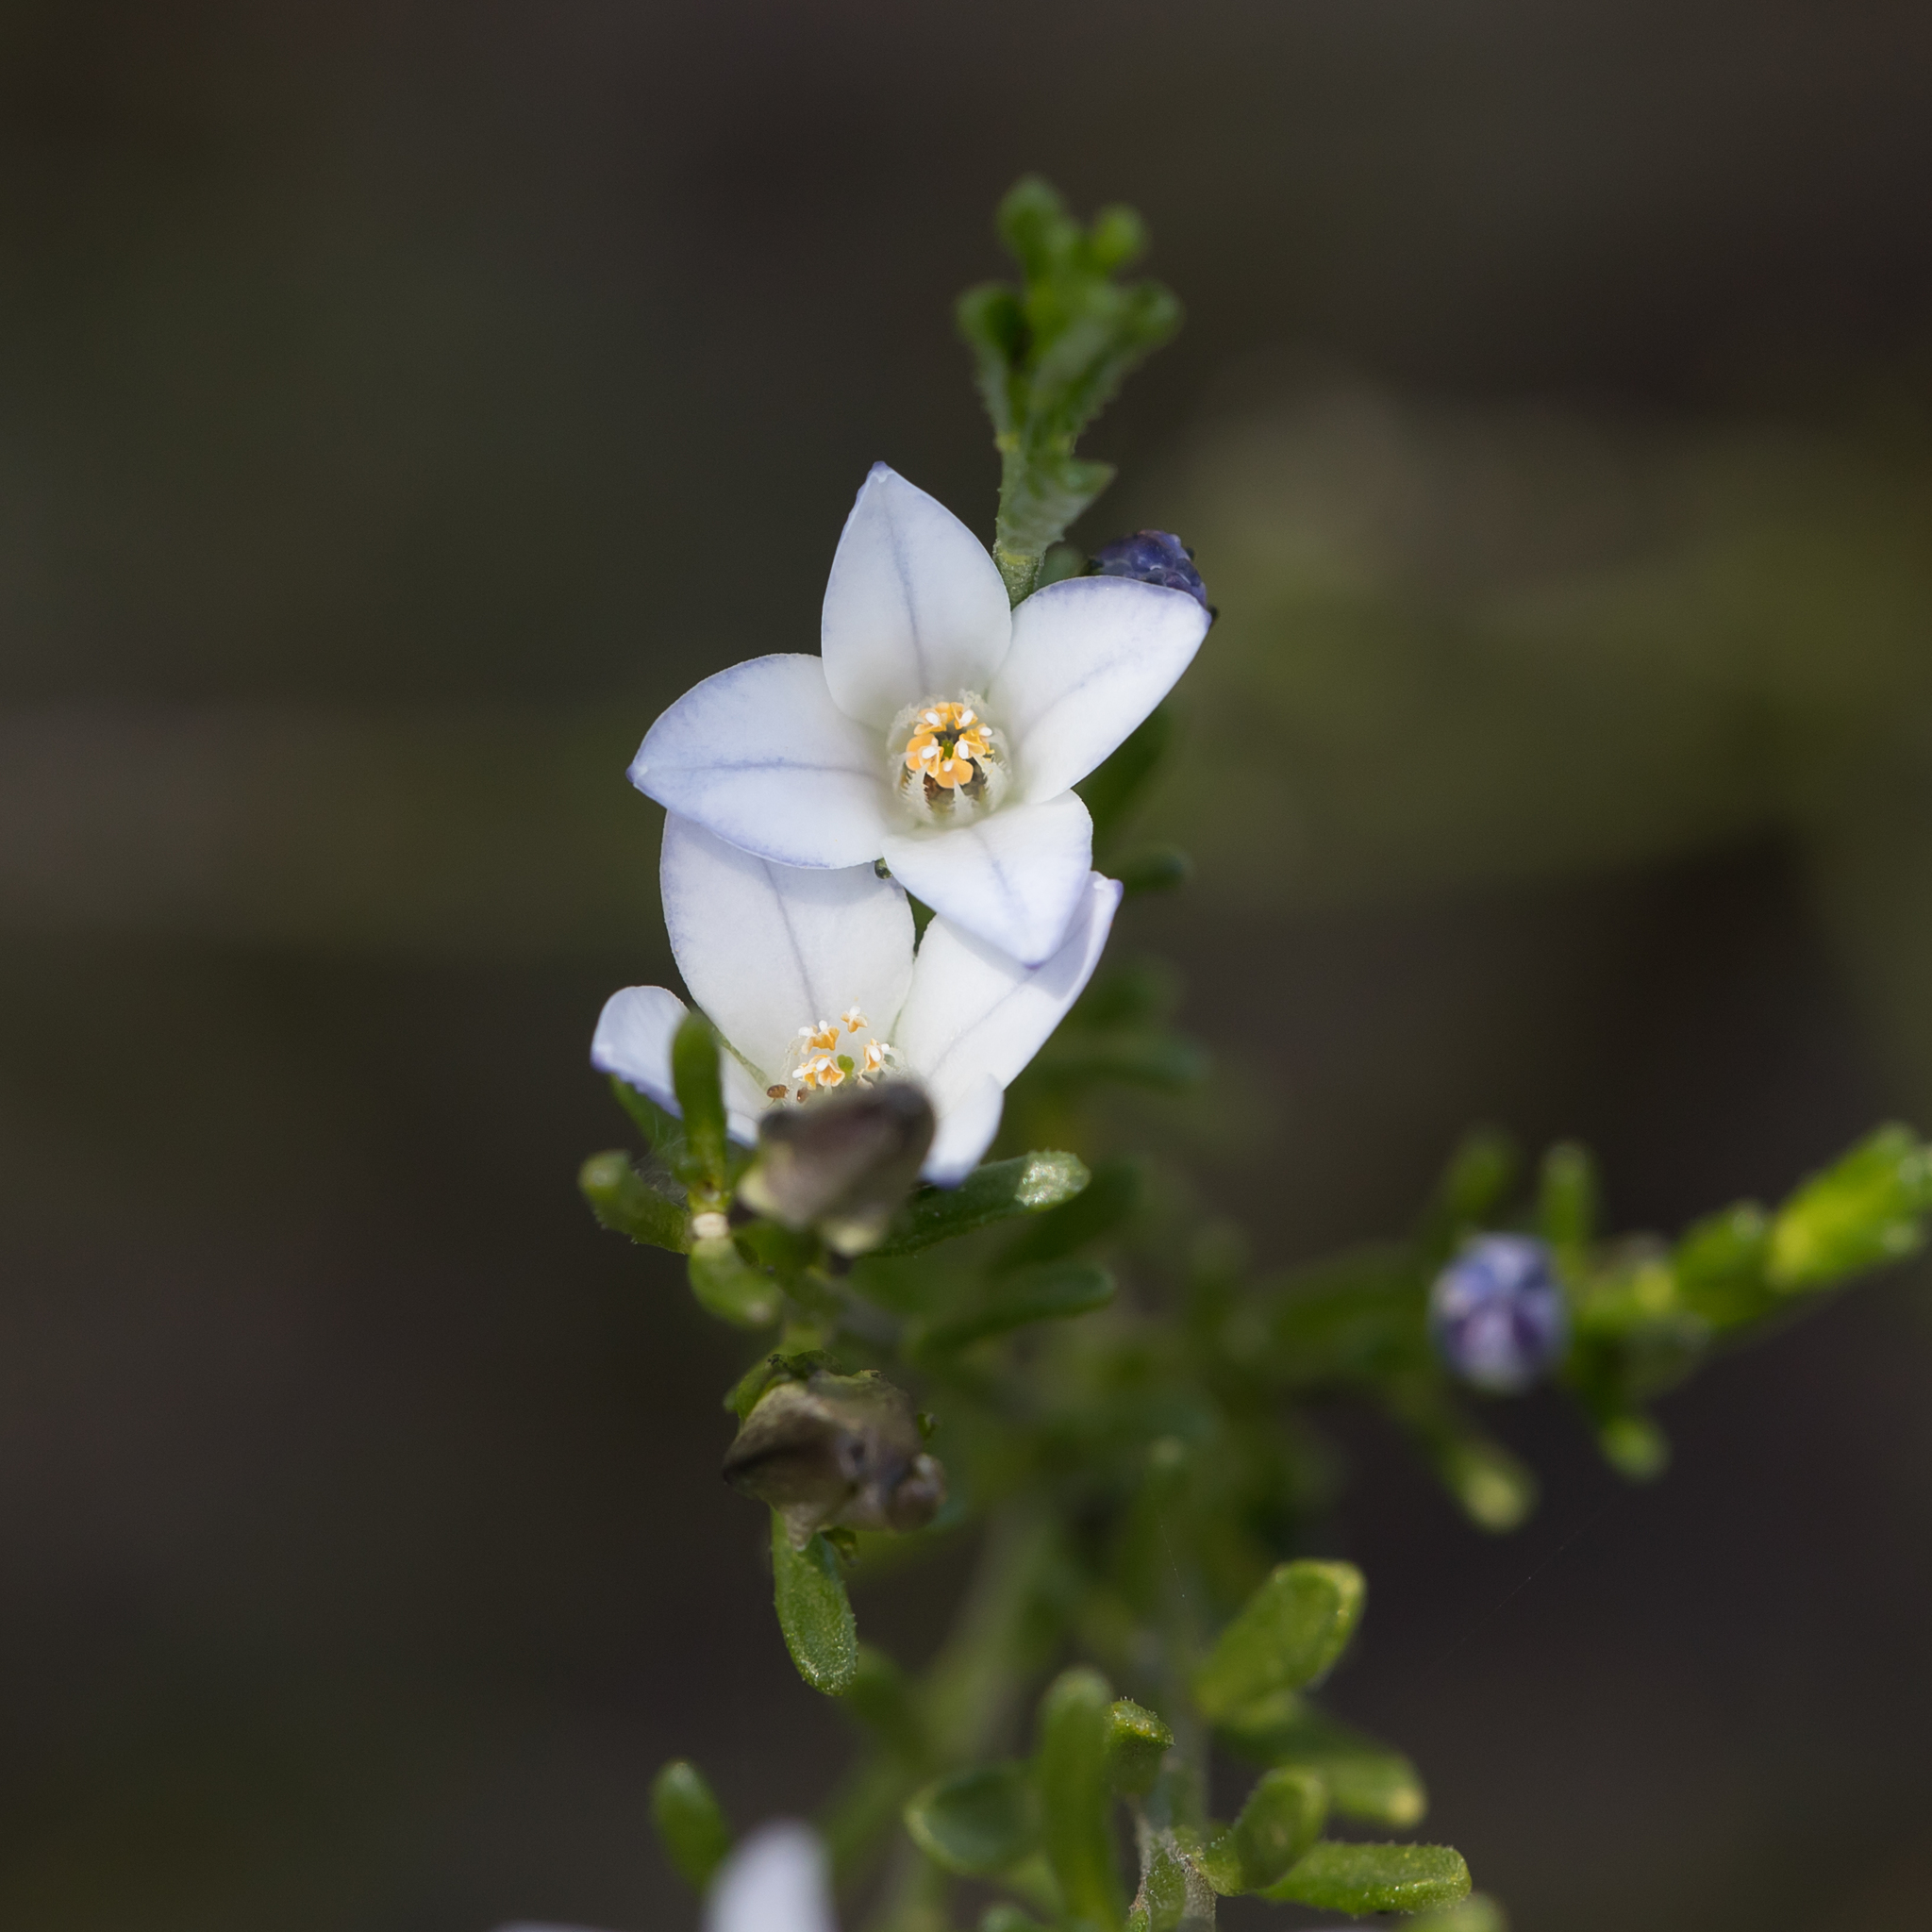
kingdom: Plantae
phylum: Tracheophyta
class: Magnoliopsida
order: Sapindales
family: Rutaceae
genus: Cyanothamnus
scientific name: Cyanothamnus coerulescens
